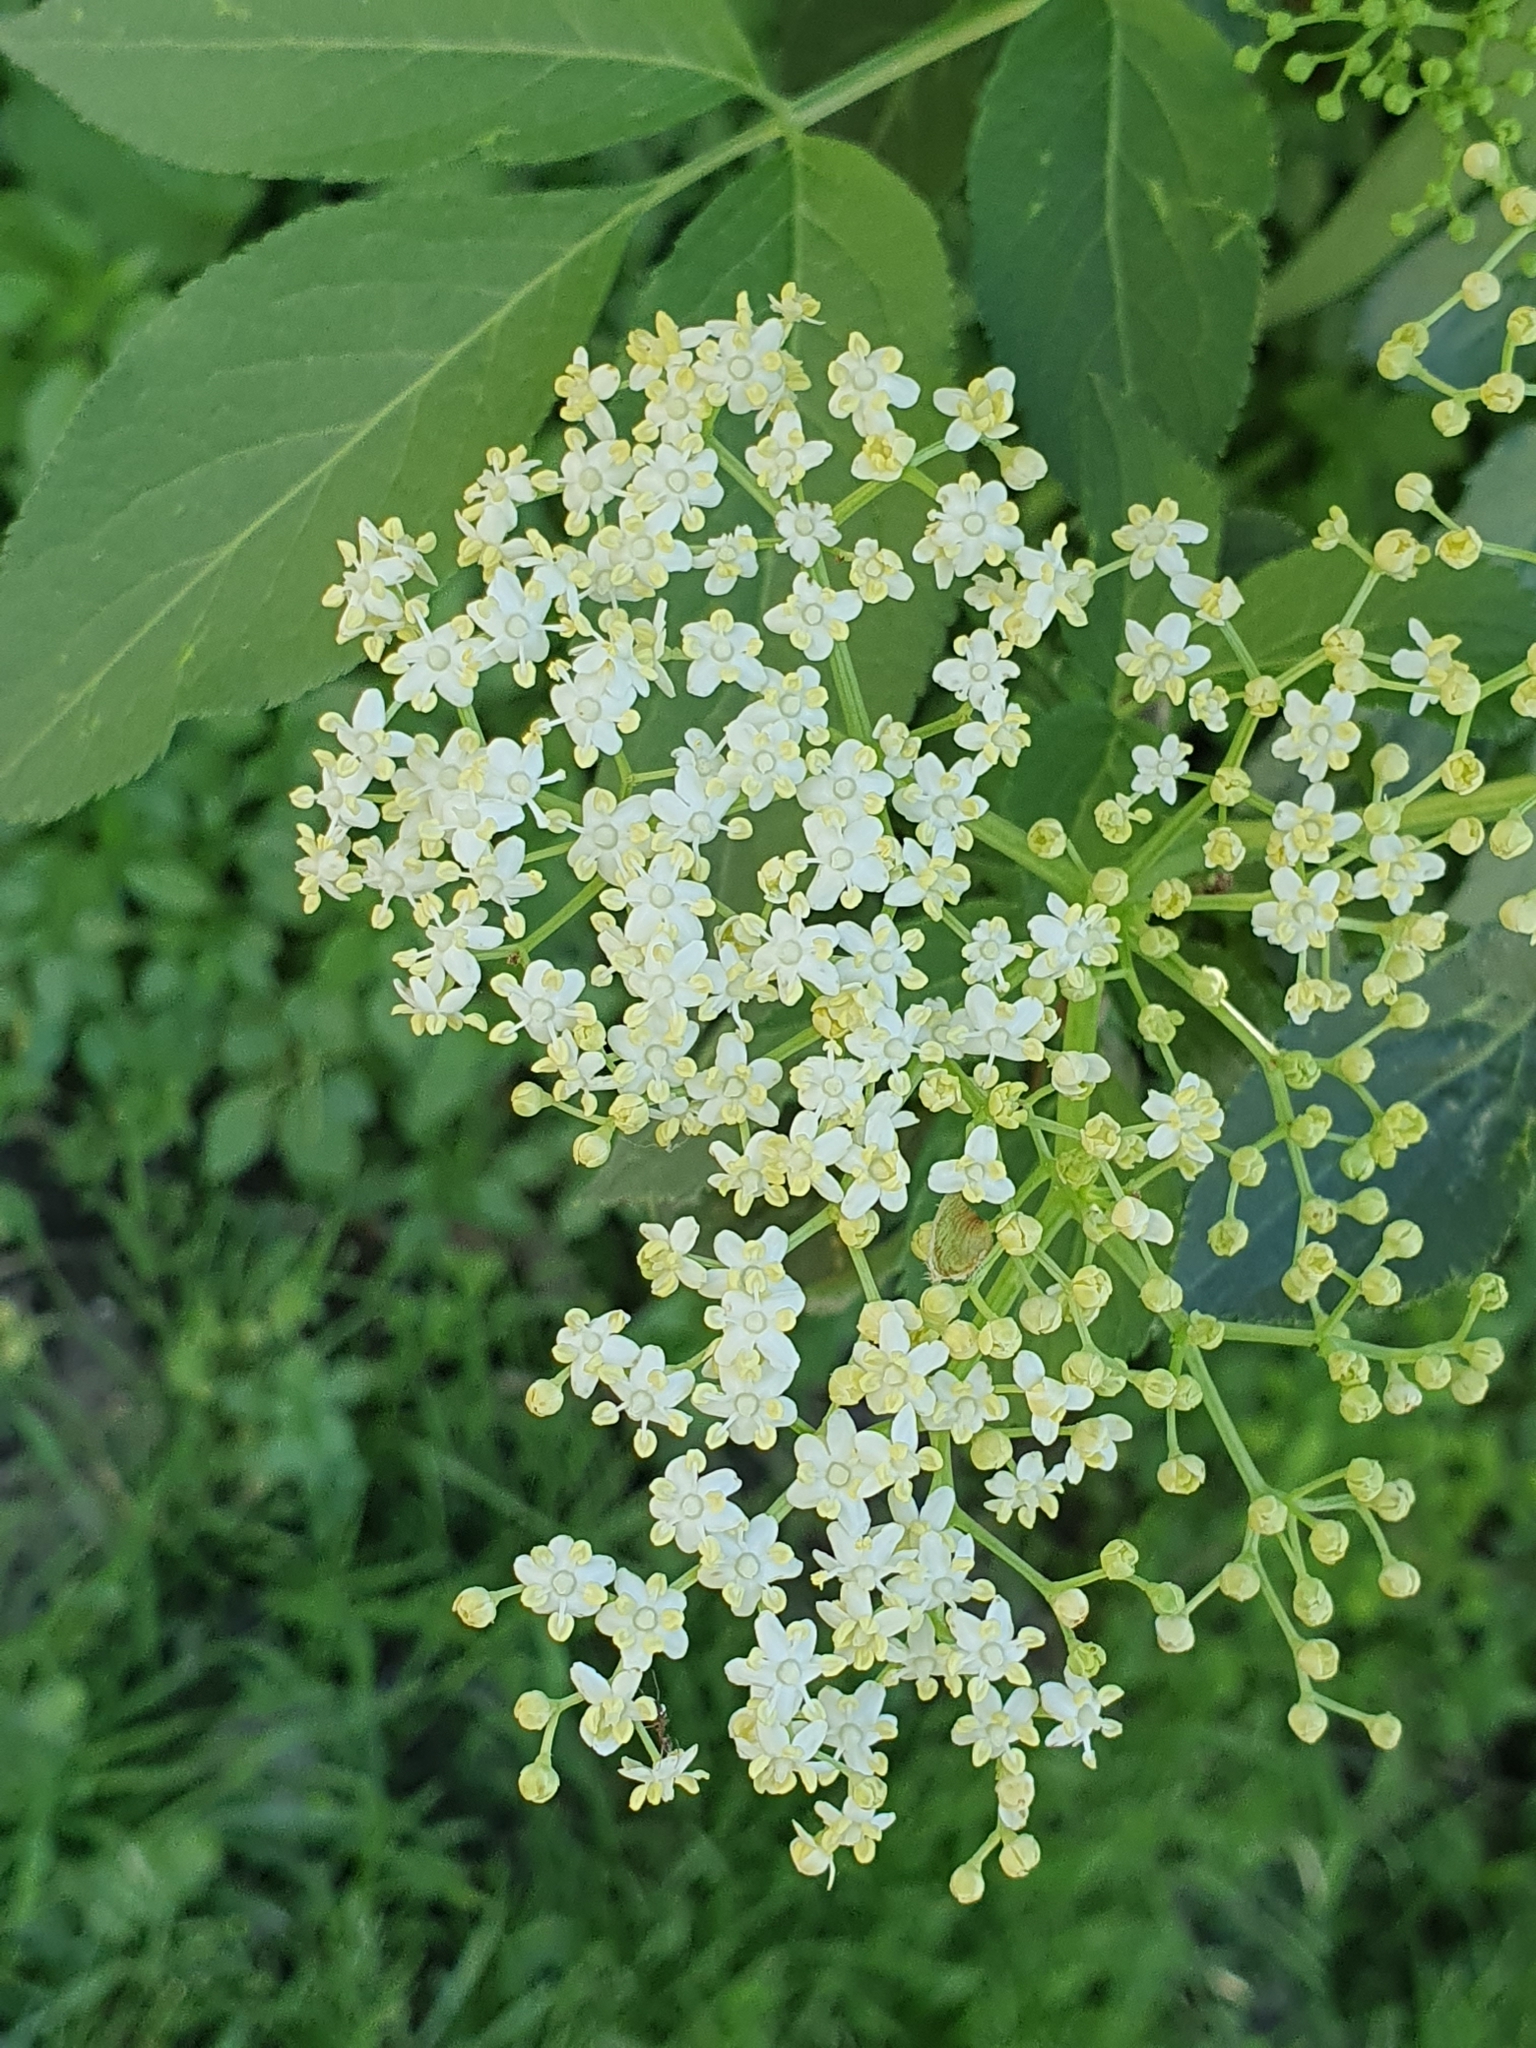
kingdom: Plantae
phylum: Tracheophyta
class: Magnoliopsida
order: Dipsacales
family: Viburnaceae
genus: Sambucus
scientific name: Sambucus nigra
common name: Elder
